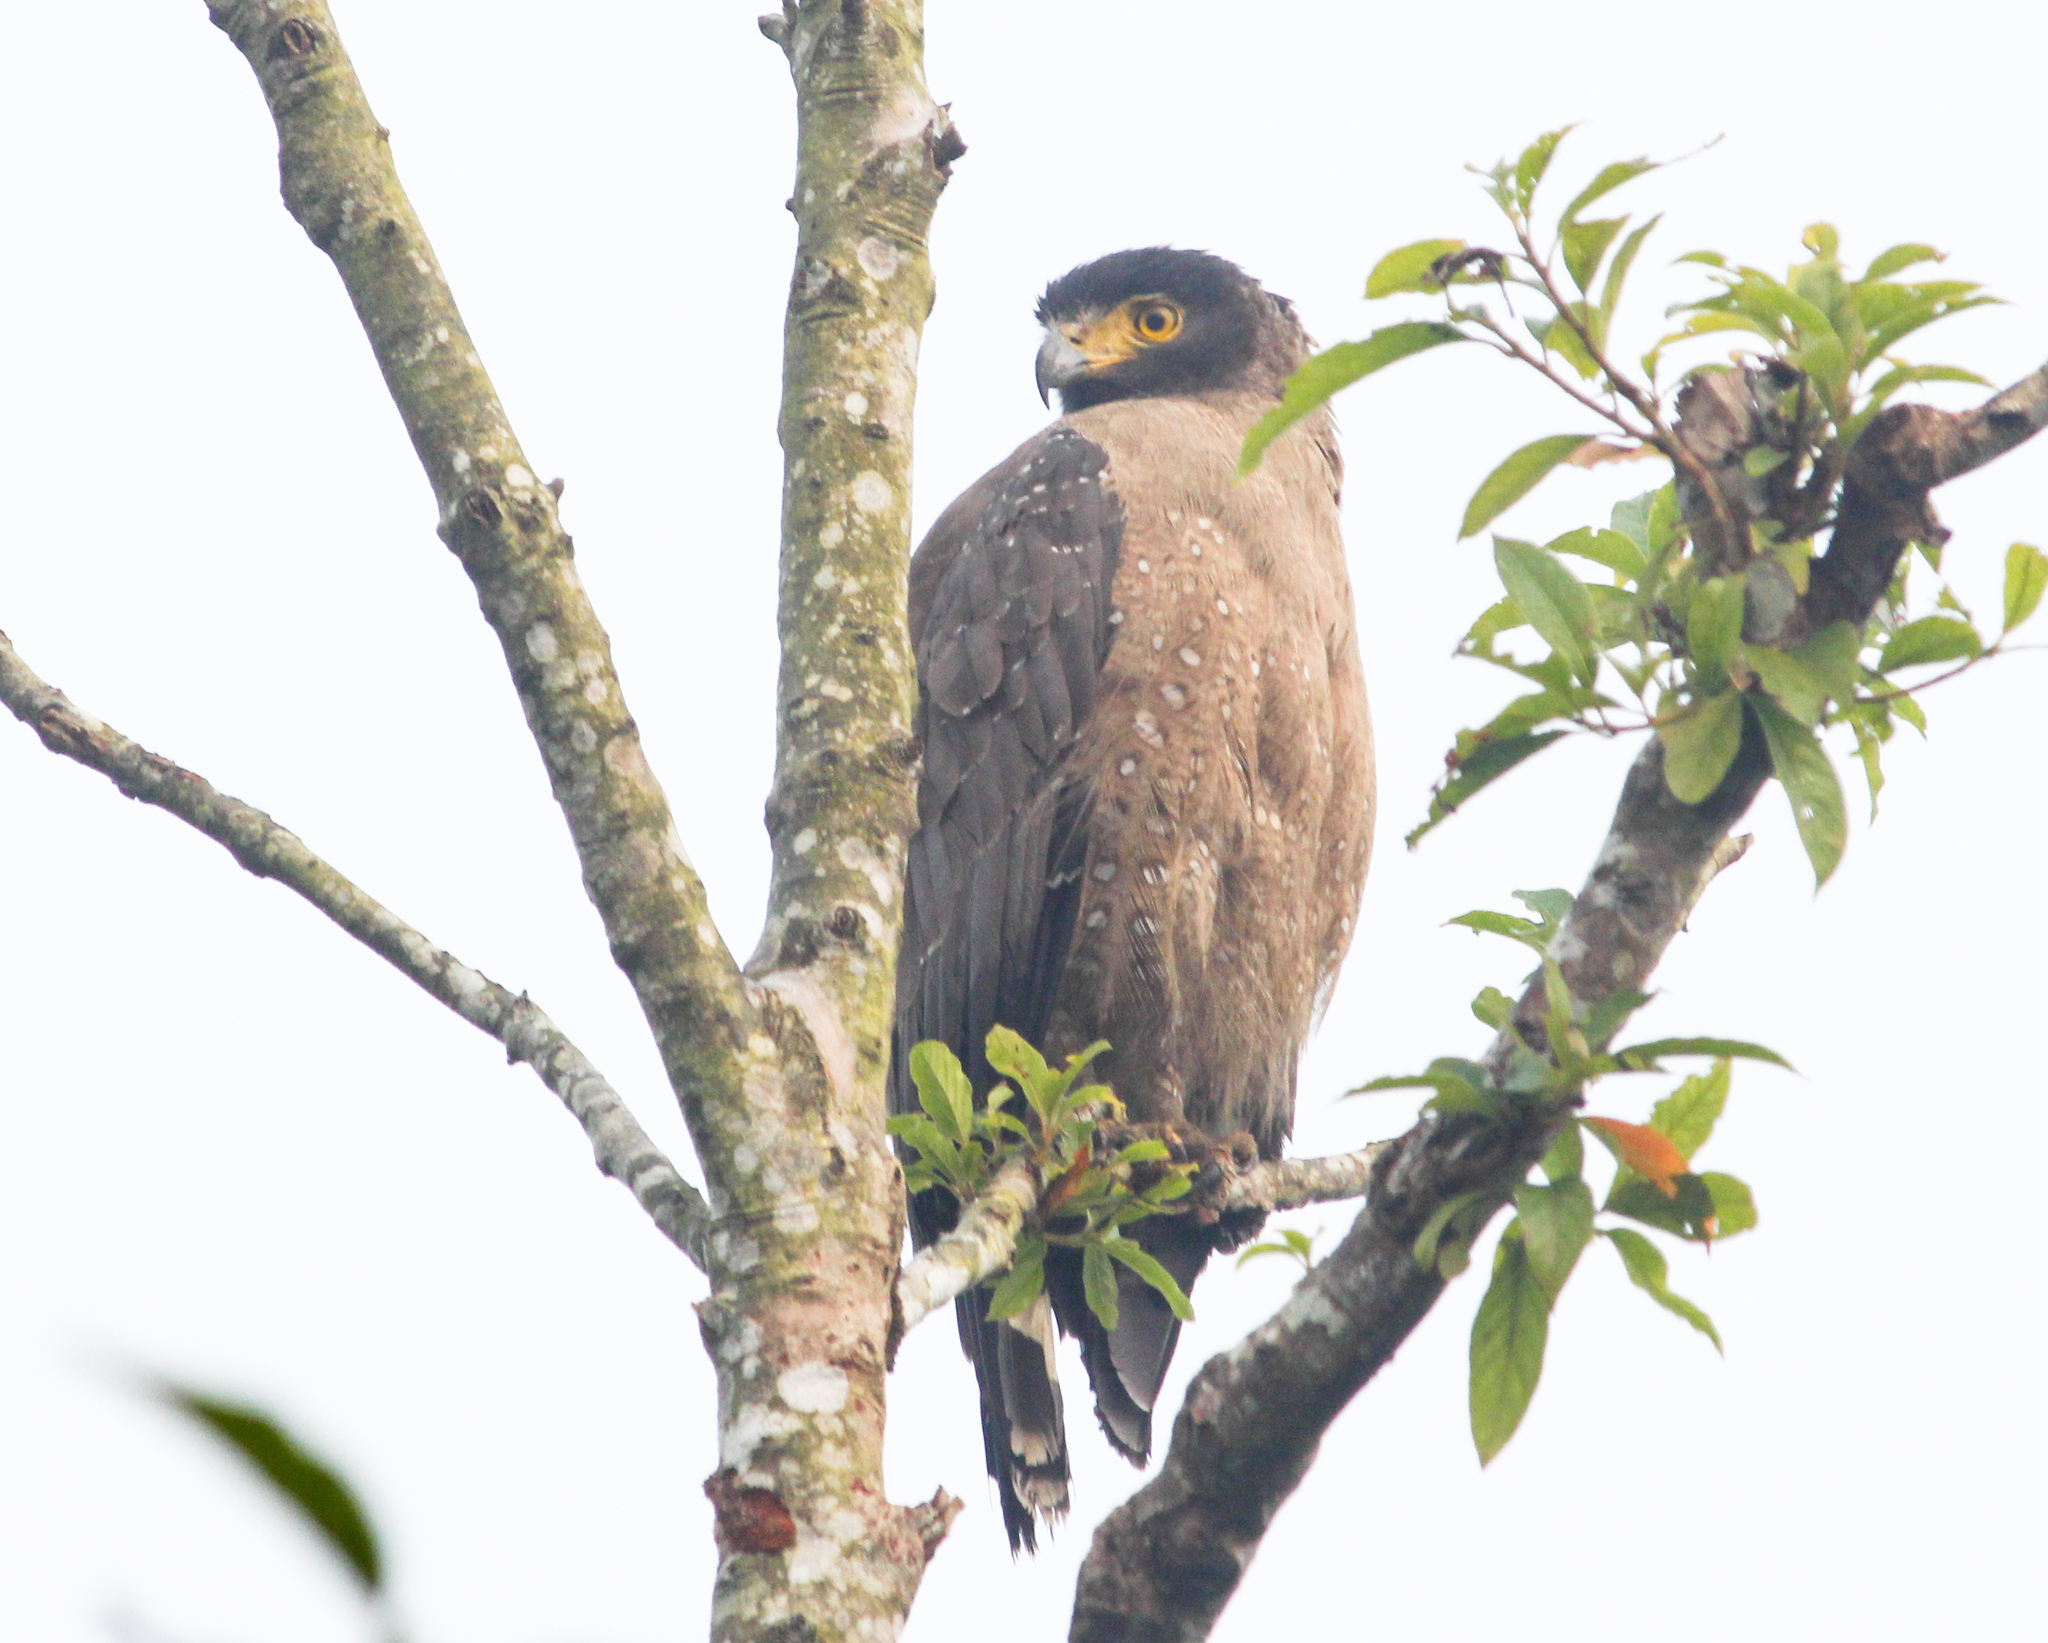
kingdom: Animalia
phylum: Chordata
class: Aves
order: Accipitriformes
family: Accipitridae
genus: Spilornis
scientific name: Spilornis cheela
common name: Crested serpent eagle
